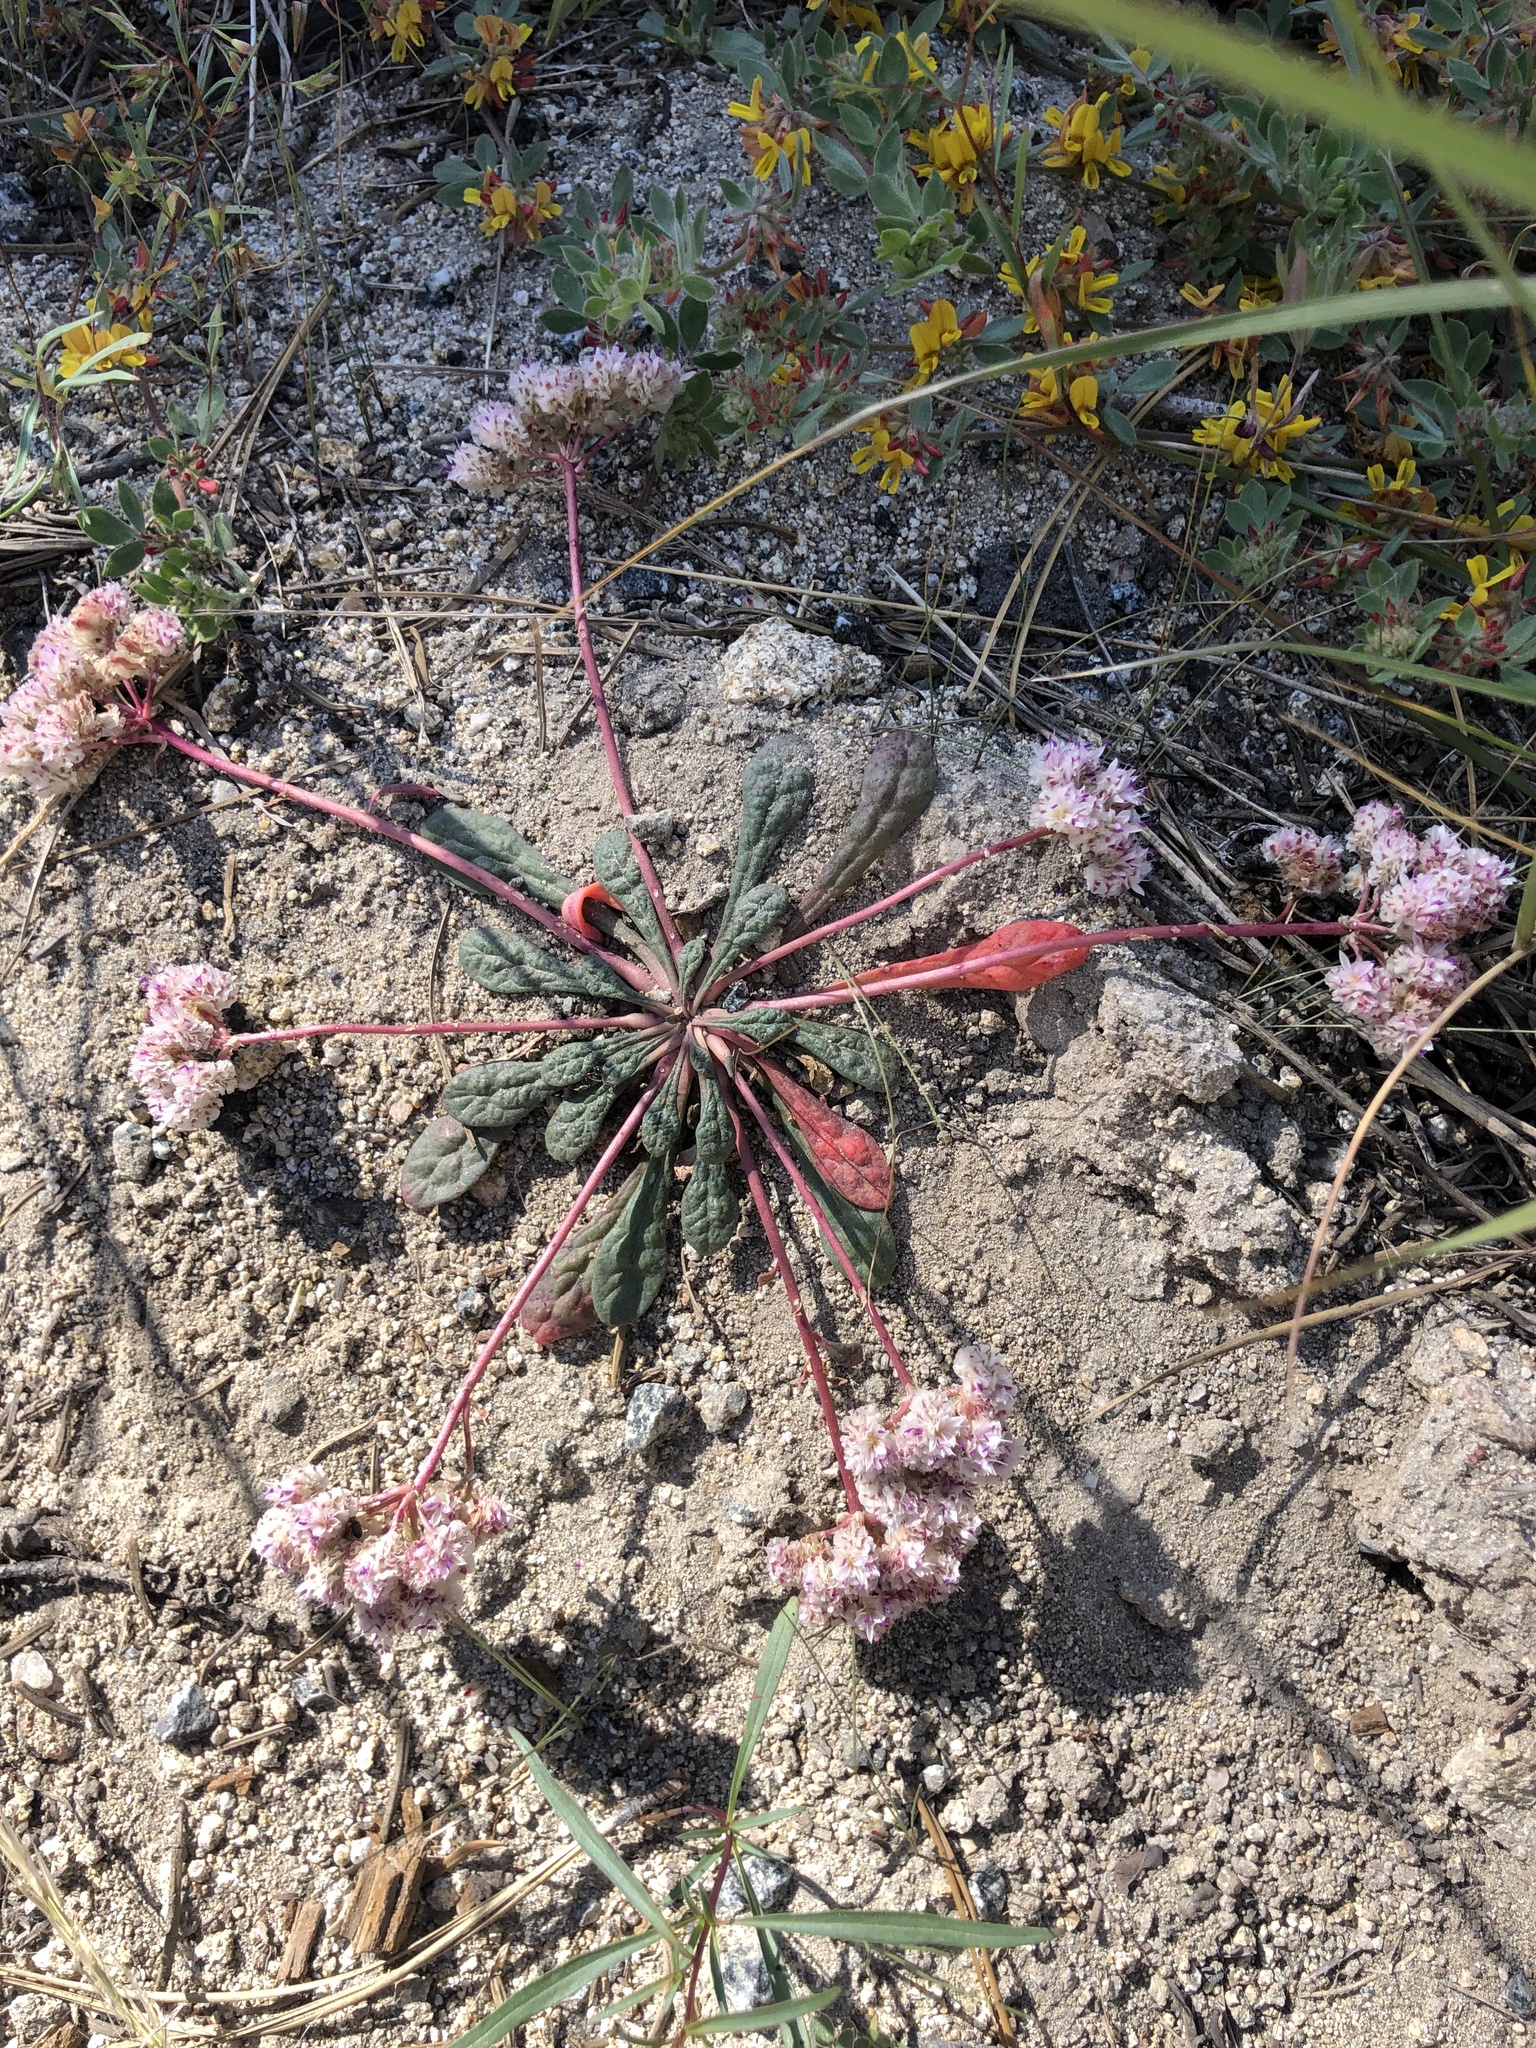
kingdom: Plantae
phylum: Tracheophyta
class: Magnoliopsida
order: Caryophyllales
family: Montiaceae
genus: Calyptridium
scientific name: Calyptridium monospermum
